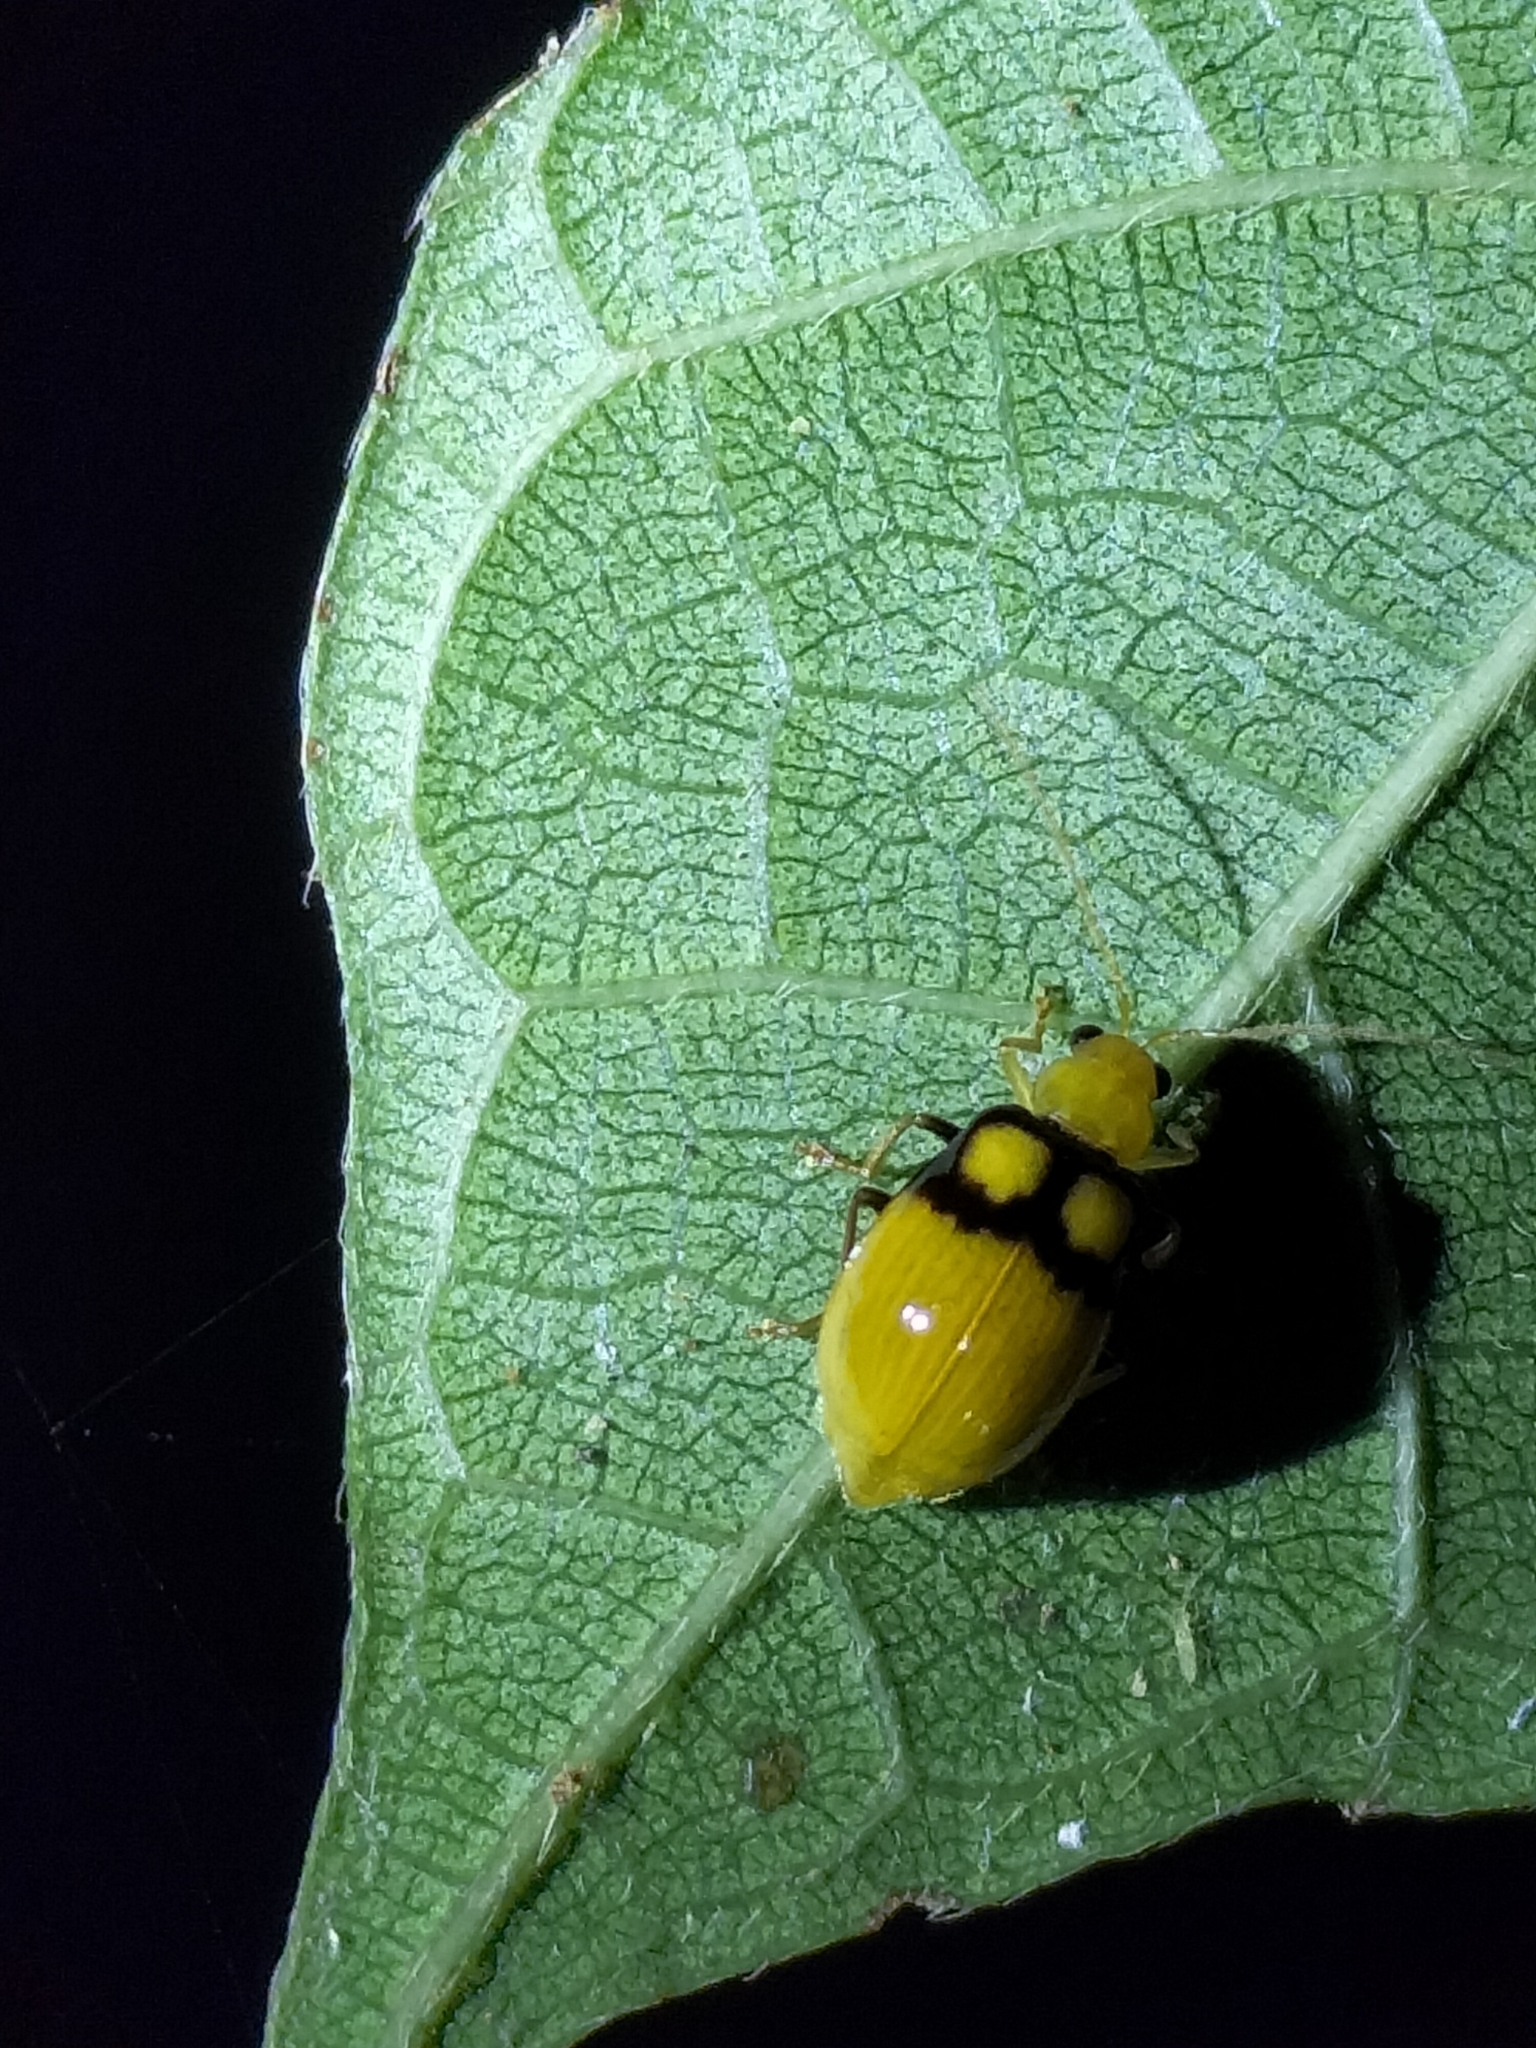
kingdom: Animalia
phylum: Arthropoda
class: Insecta
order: Coleoptera
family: Chrysomelidae
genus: Monolepta
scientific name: Monolepta
